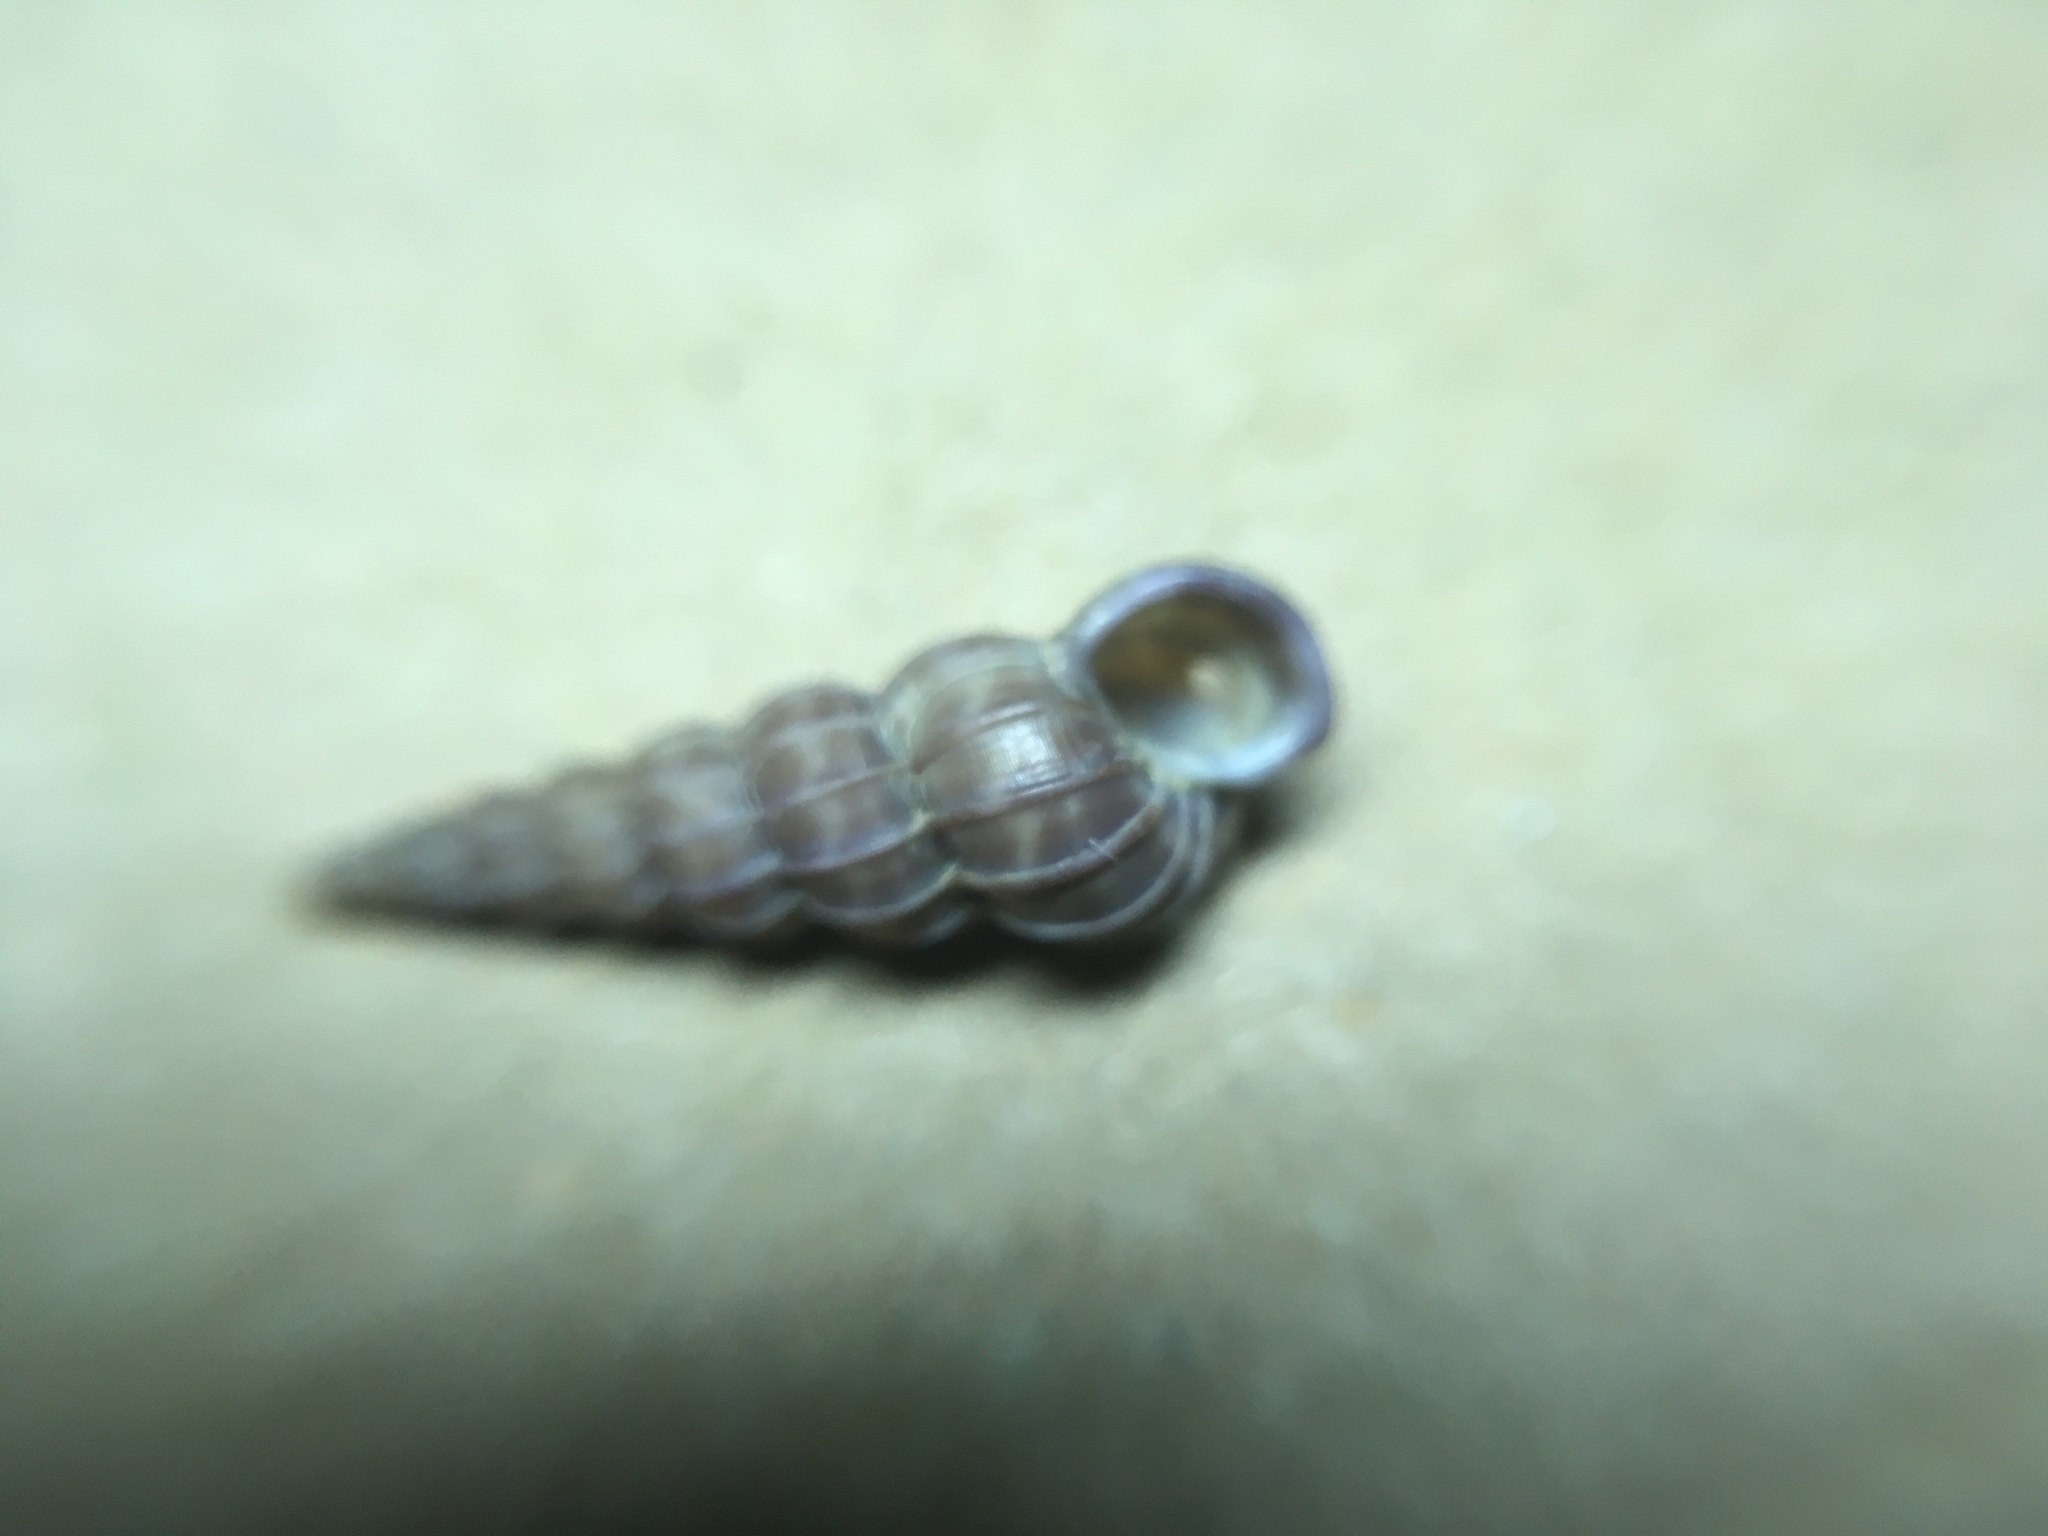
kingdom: Animalia
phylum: Mollusca
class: Gastropoda
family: Epitoniidae
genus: Epitonium
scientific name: Epitonium turtonis
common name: Turton's wentletrap
